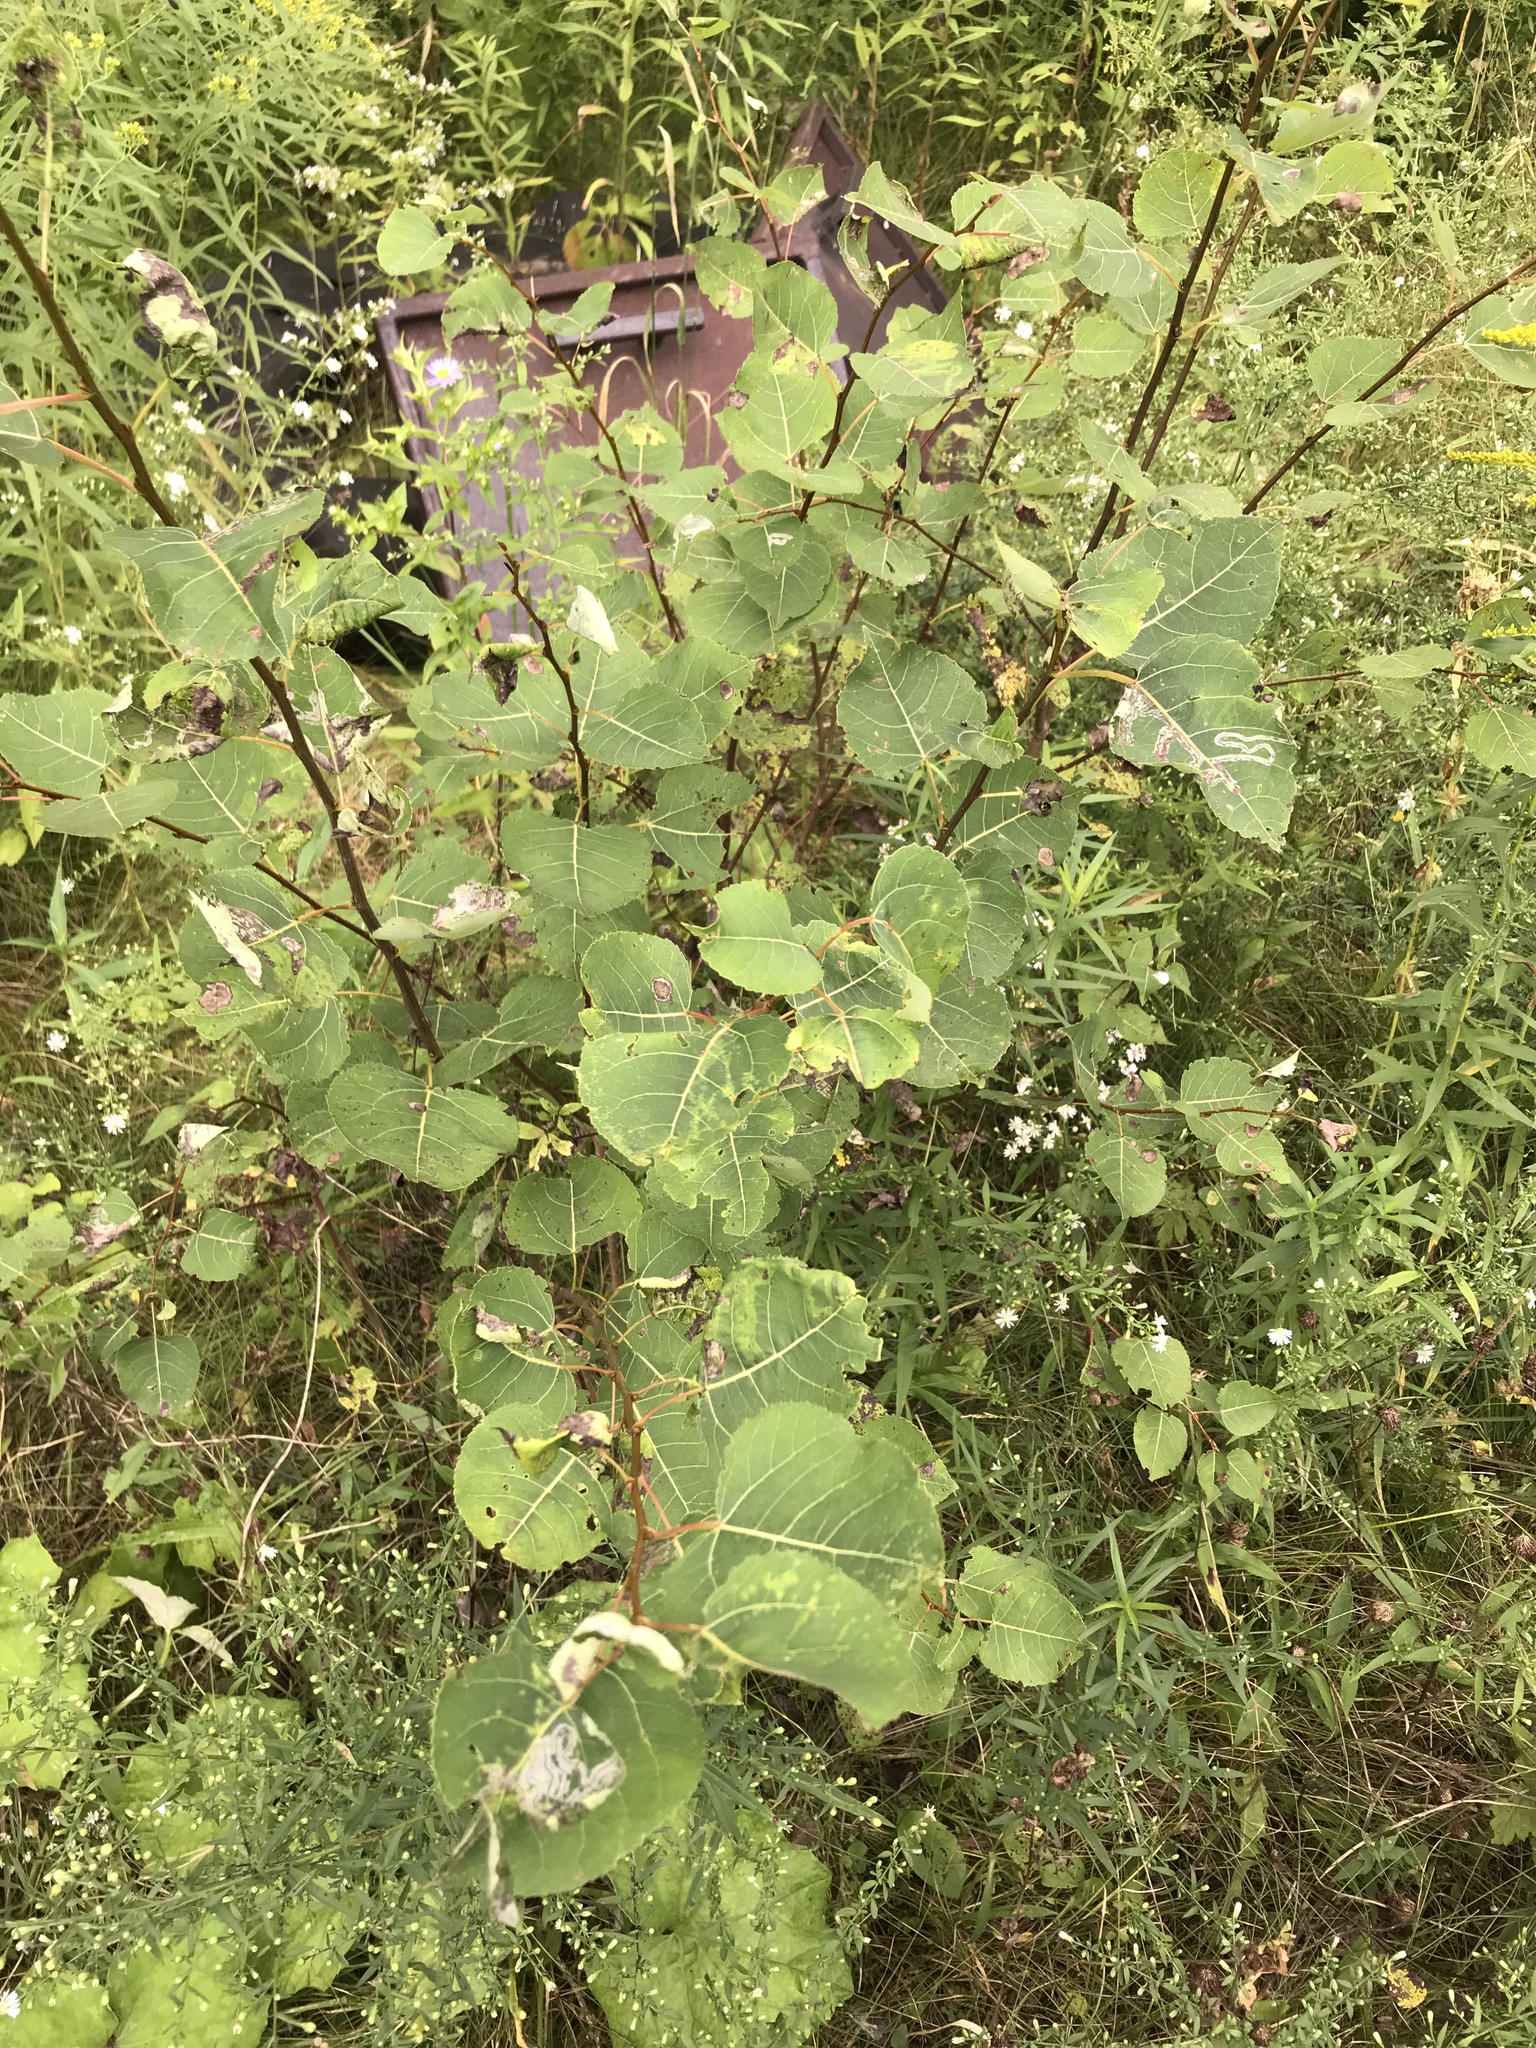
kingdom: Plantae
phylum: Tracheophyta
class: Magnoliopsida
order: Malpighiales
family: Salicaceae
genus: Populus
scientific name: Populus tremuloides
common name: Quaking aspen
